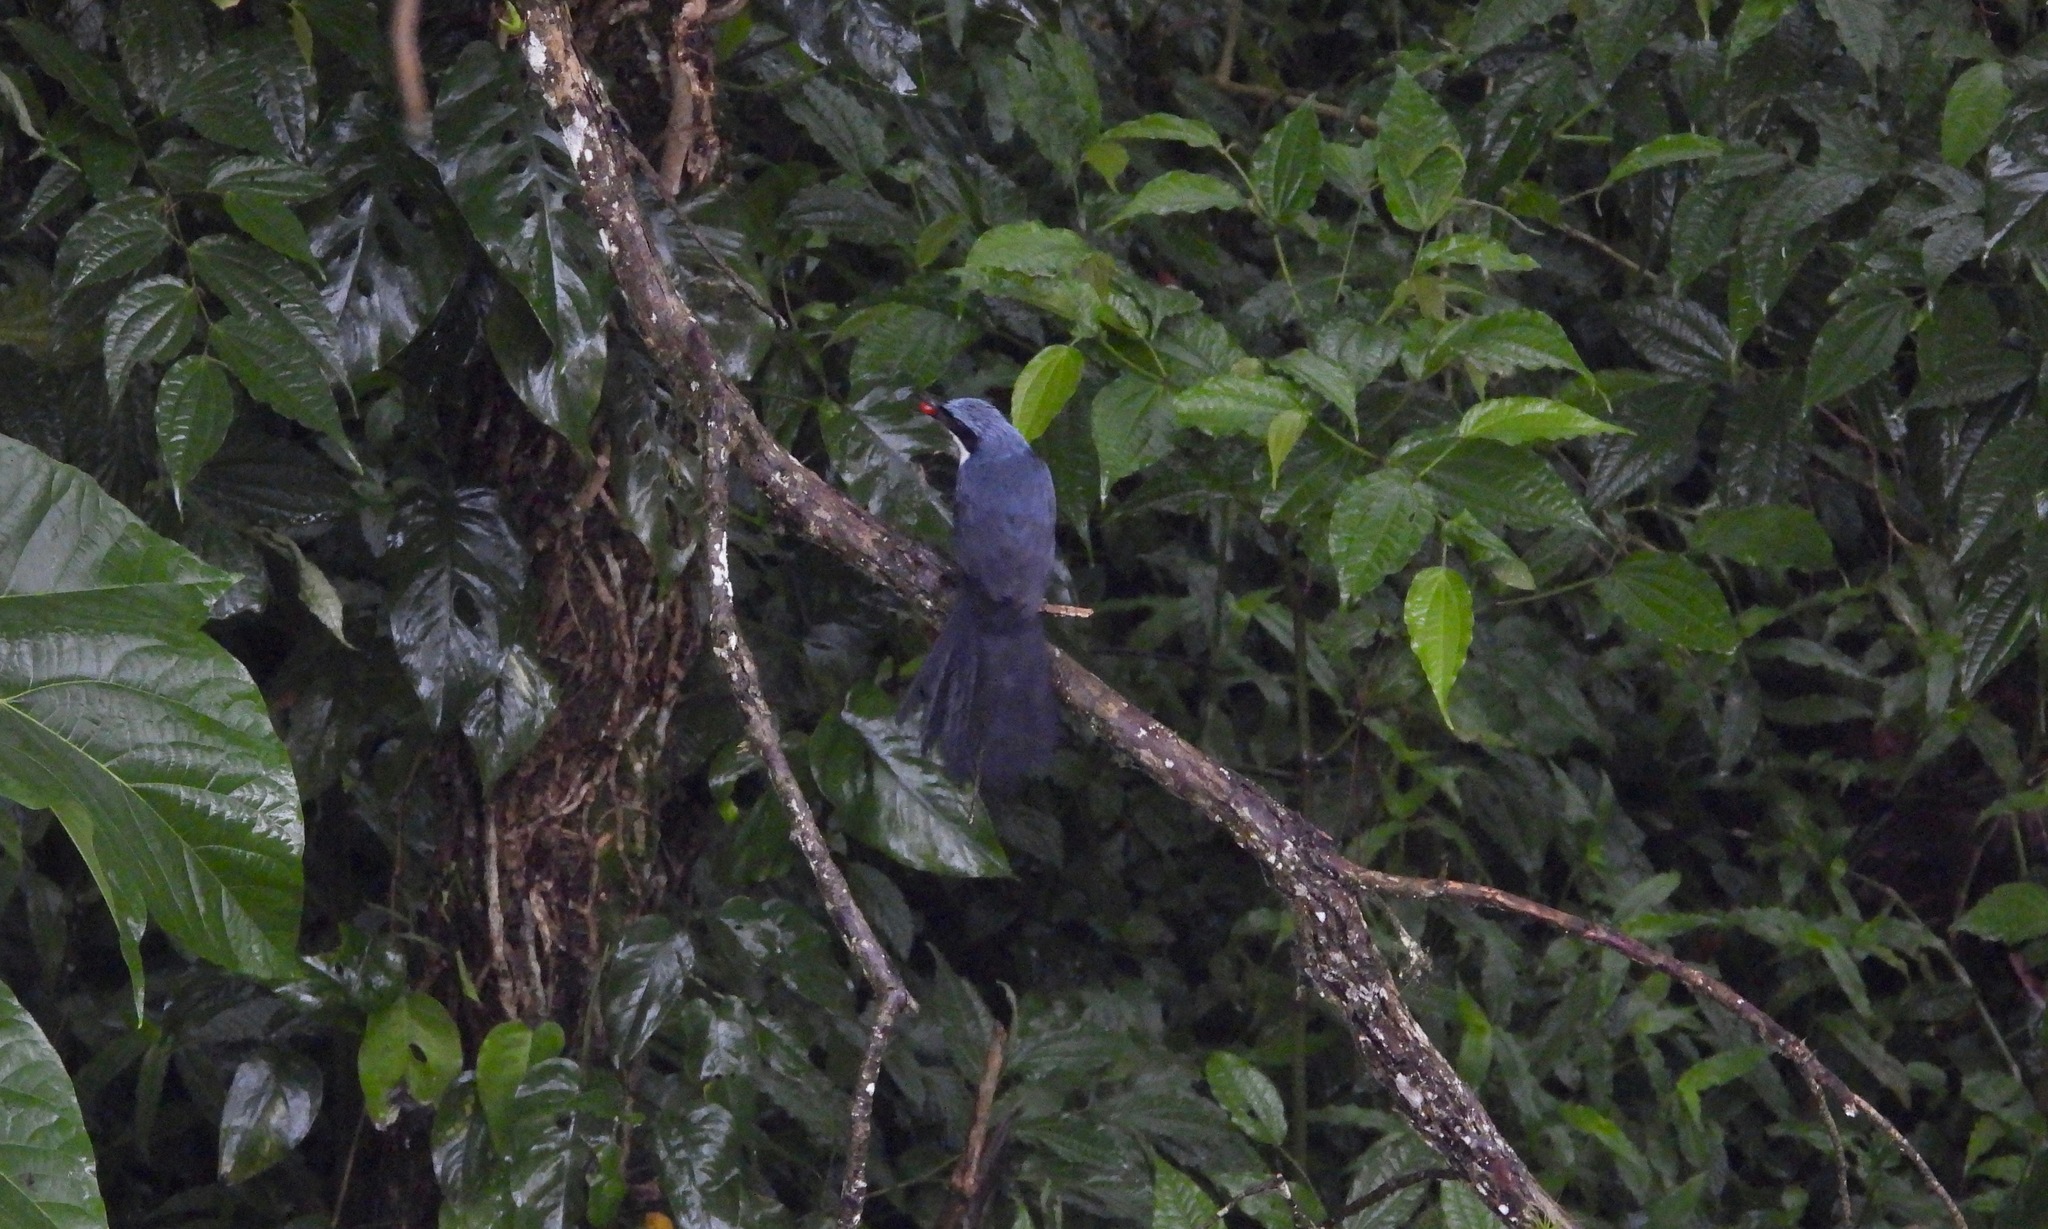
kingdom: Animalia
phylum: Chordata
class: Aves
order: Passeriformes
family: Mimidae
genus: Melanotis
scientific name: Melanotis hypoleucus
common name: Blue-and-white mockingbird
